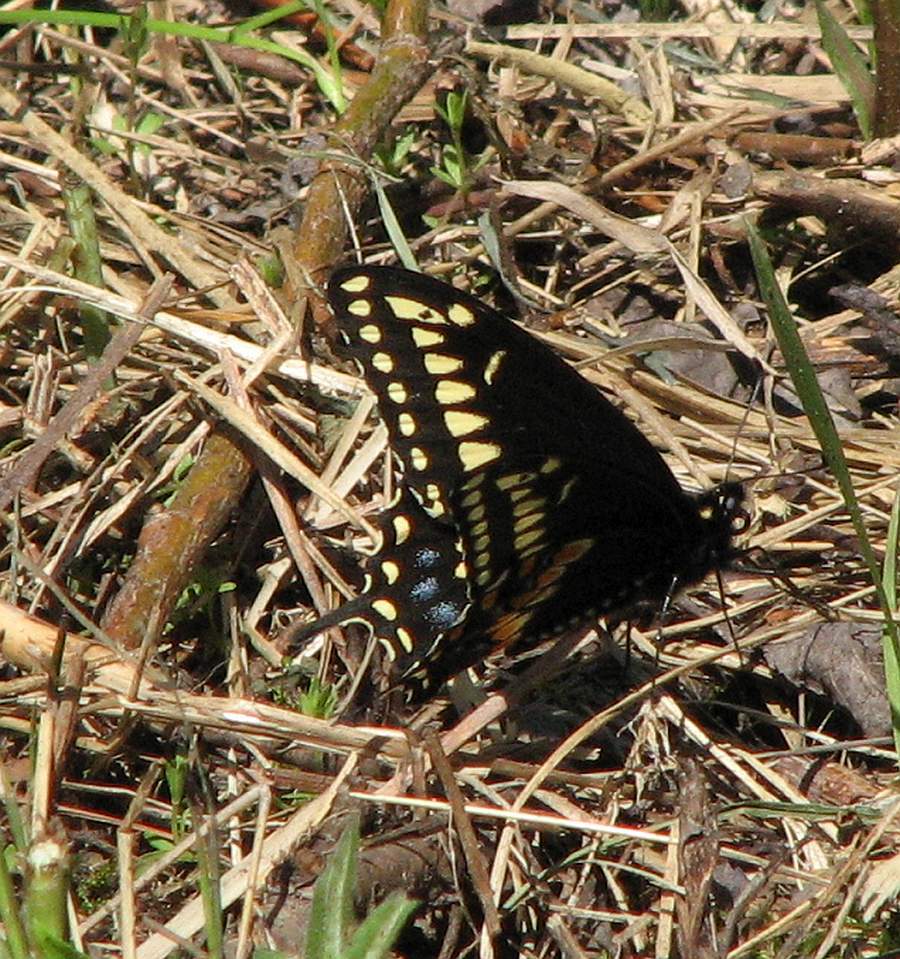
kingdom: Animalia
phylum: Arthropoda
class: Insecta
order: Lepidoptera
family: Papilionidae
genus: Papilio
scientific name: Papilio polyxenes
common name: Black swallowtail
